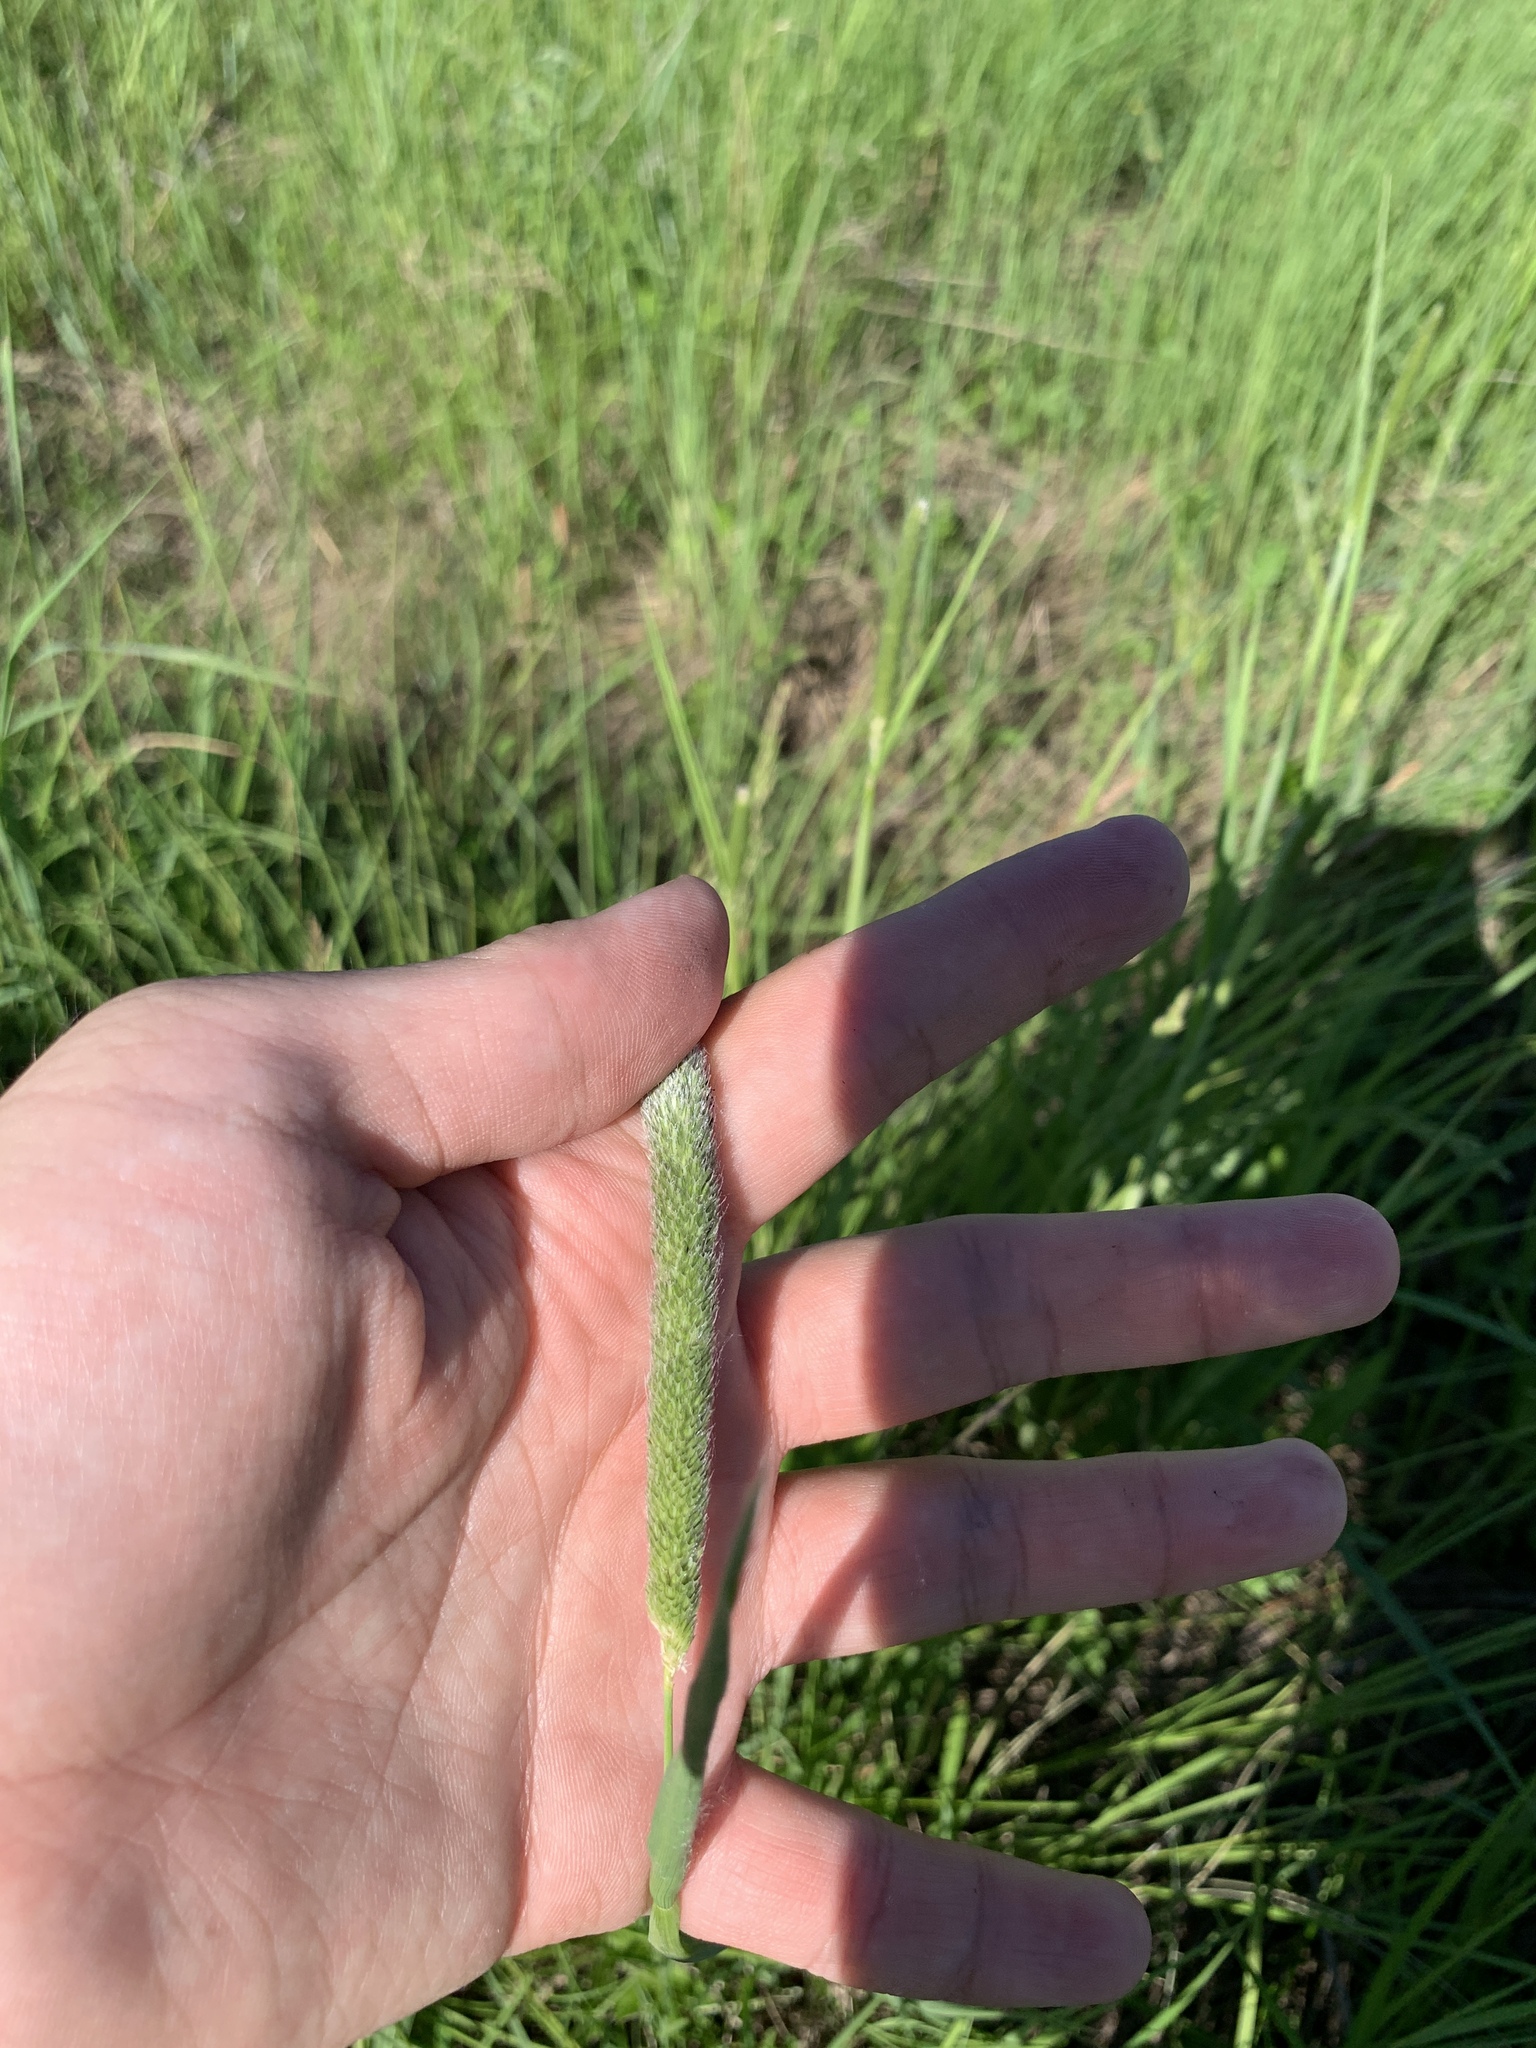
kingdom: Plantae
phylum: Tracheophyta
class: Liliopsida
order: Poales
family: Poaceae
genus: Alopecurus
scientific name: Alopecurus pratensis
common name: Meadow foxtail
